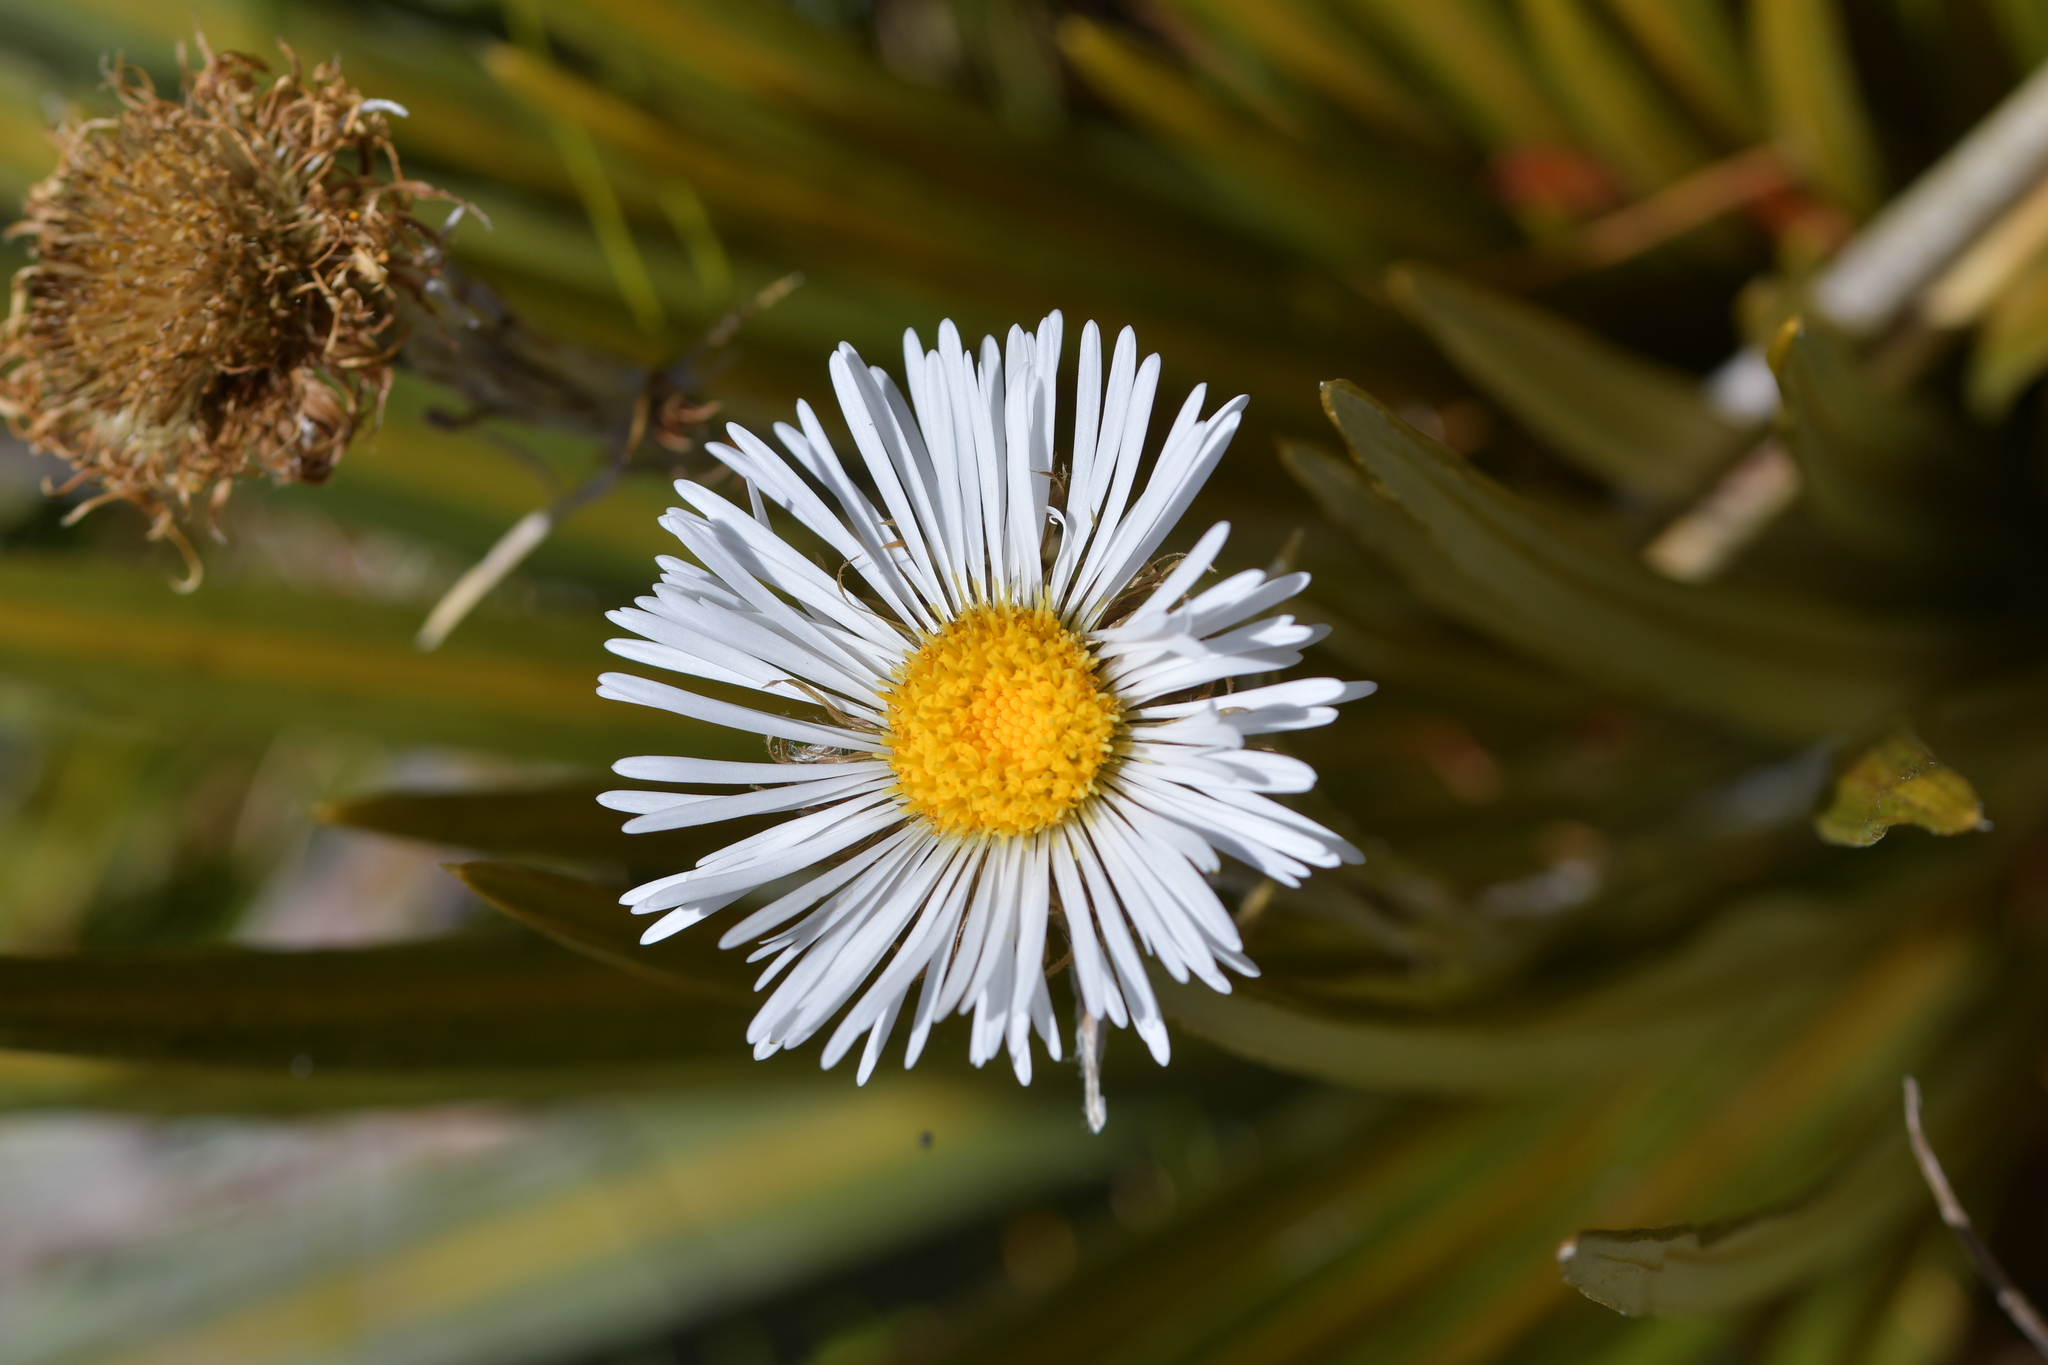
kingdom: Plantae
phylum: Tracheophyta
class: Magnoliopsida
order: Asterales
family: Asteraceae
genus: Celmisia
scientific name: Celmisia armstrongii
